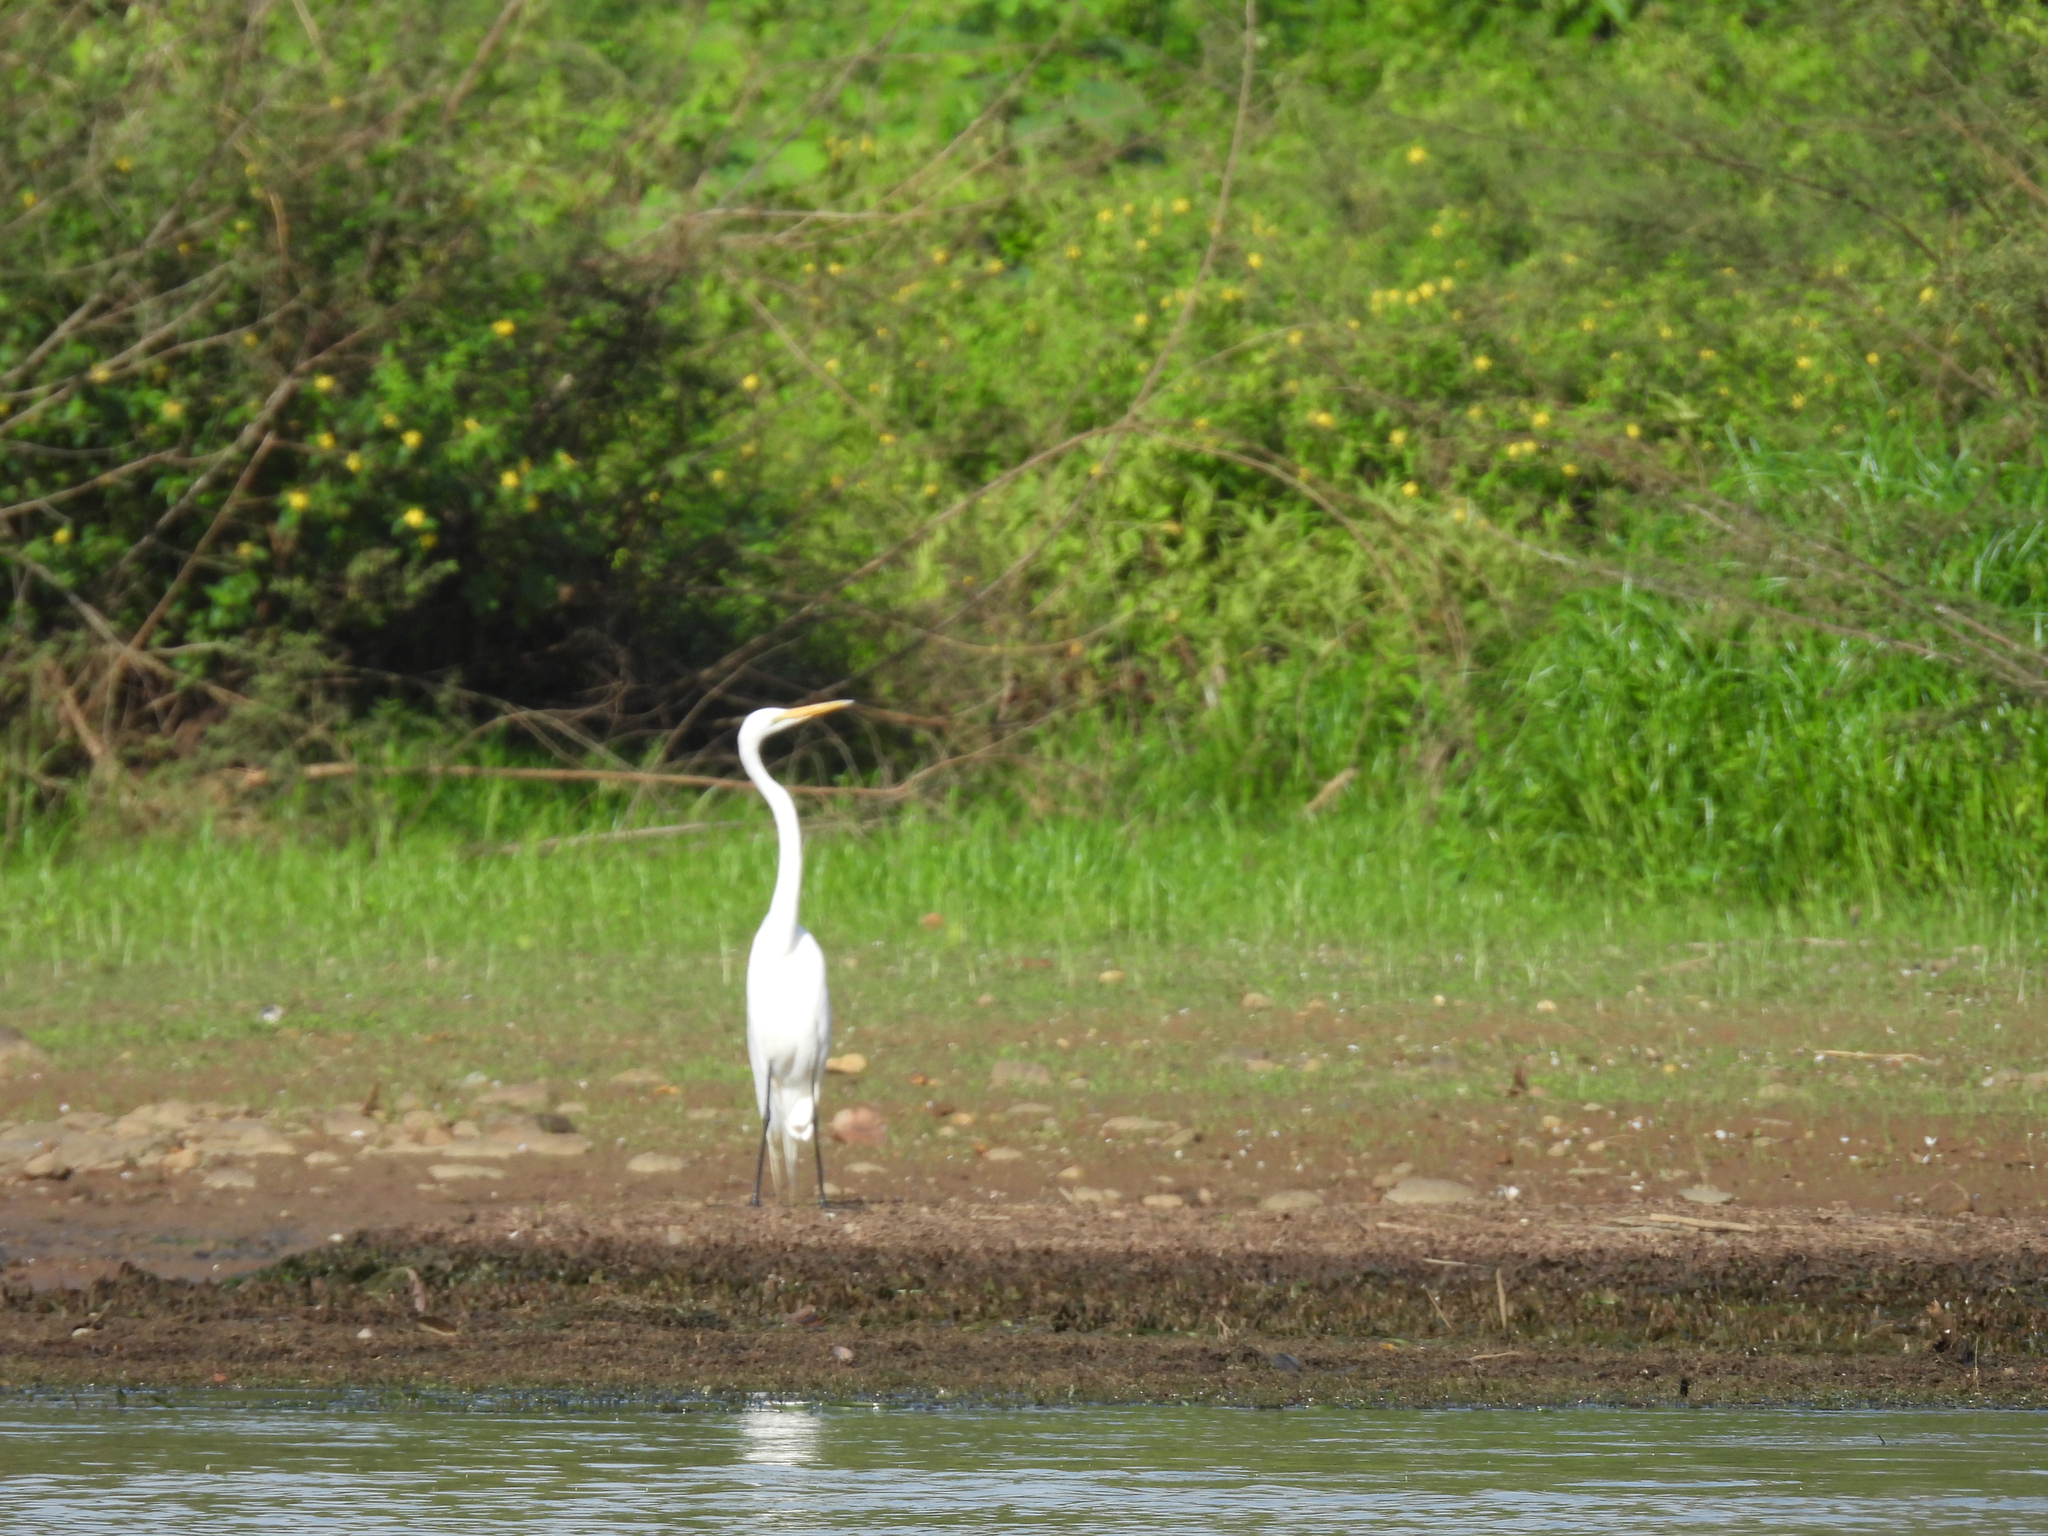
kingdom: Animalia
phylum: Chordata
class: Aves
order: Pelecaniformes
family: Ardeidae
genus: Ardea
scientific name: Ardea alba
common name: Great egret
